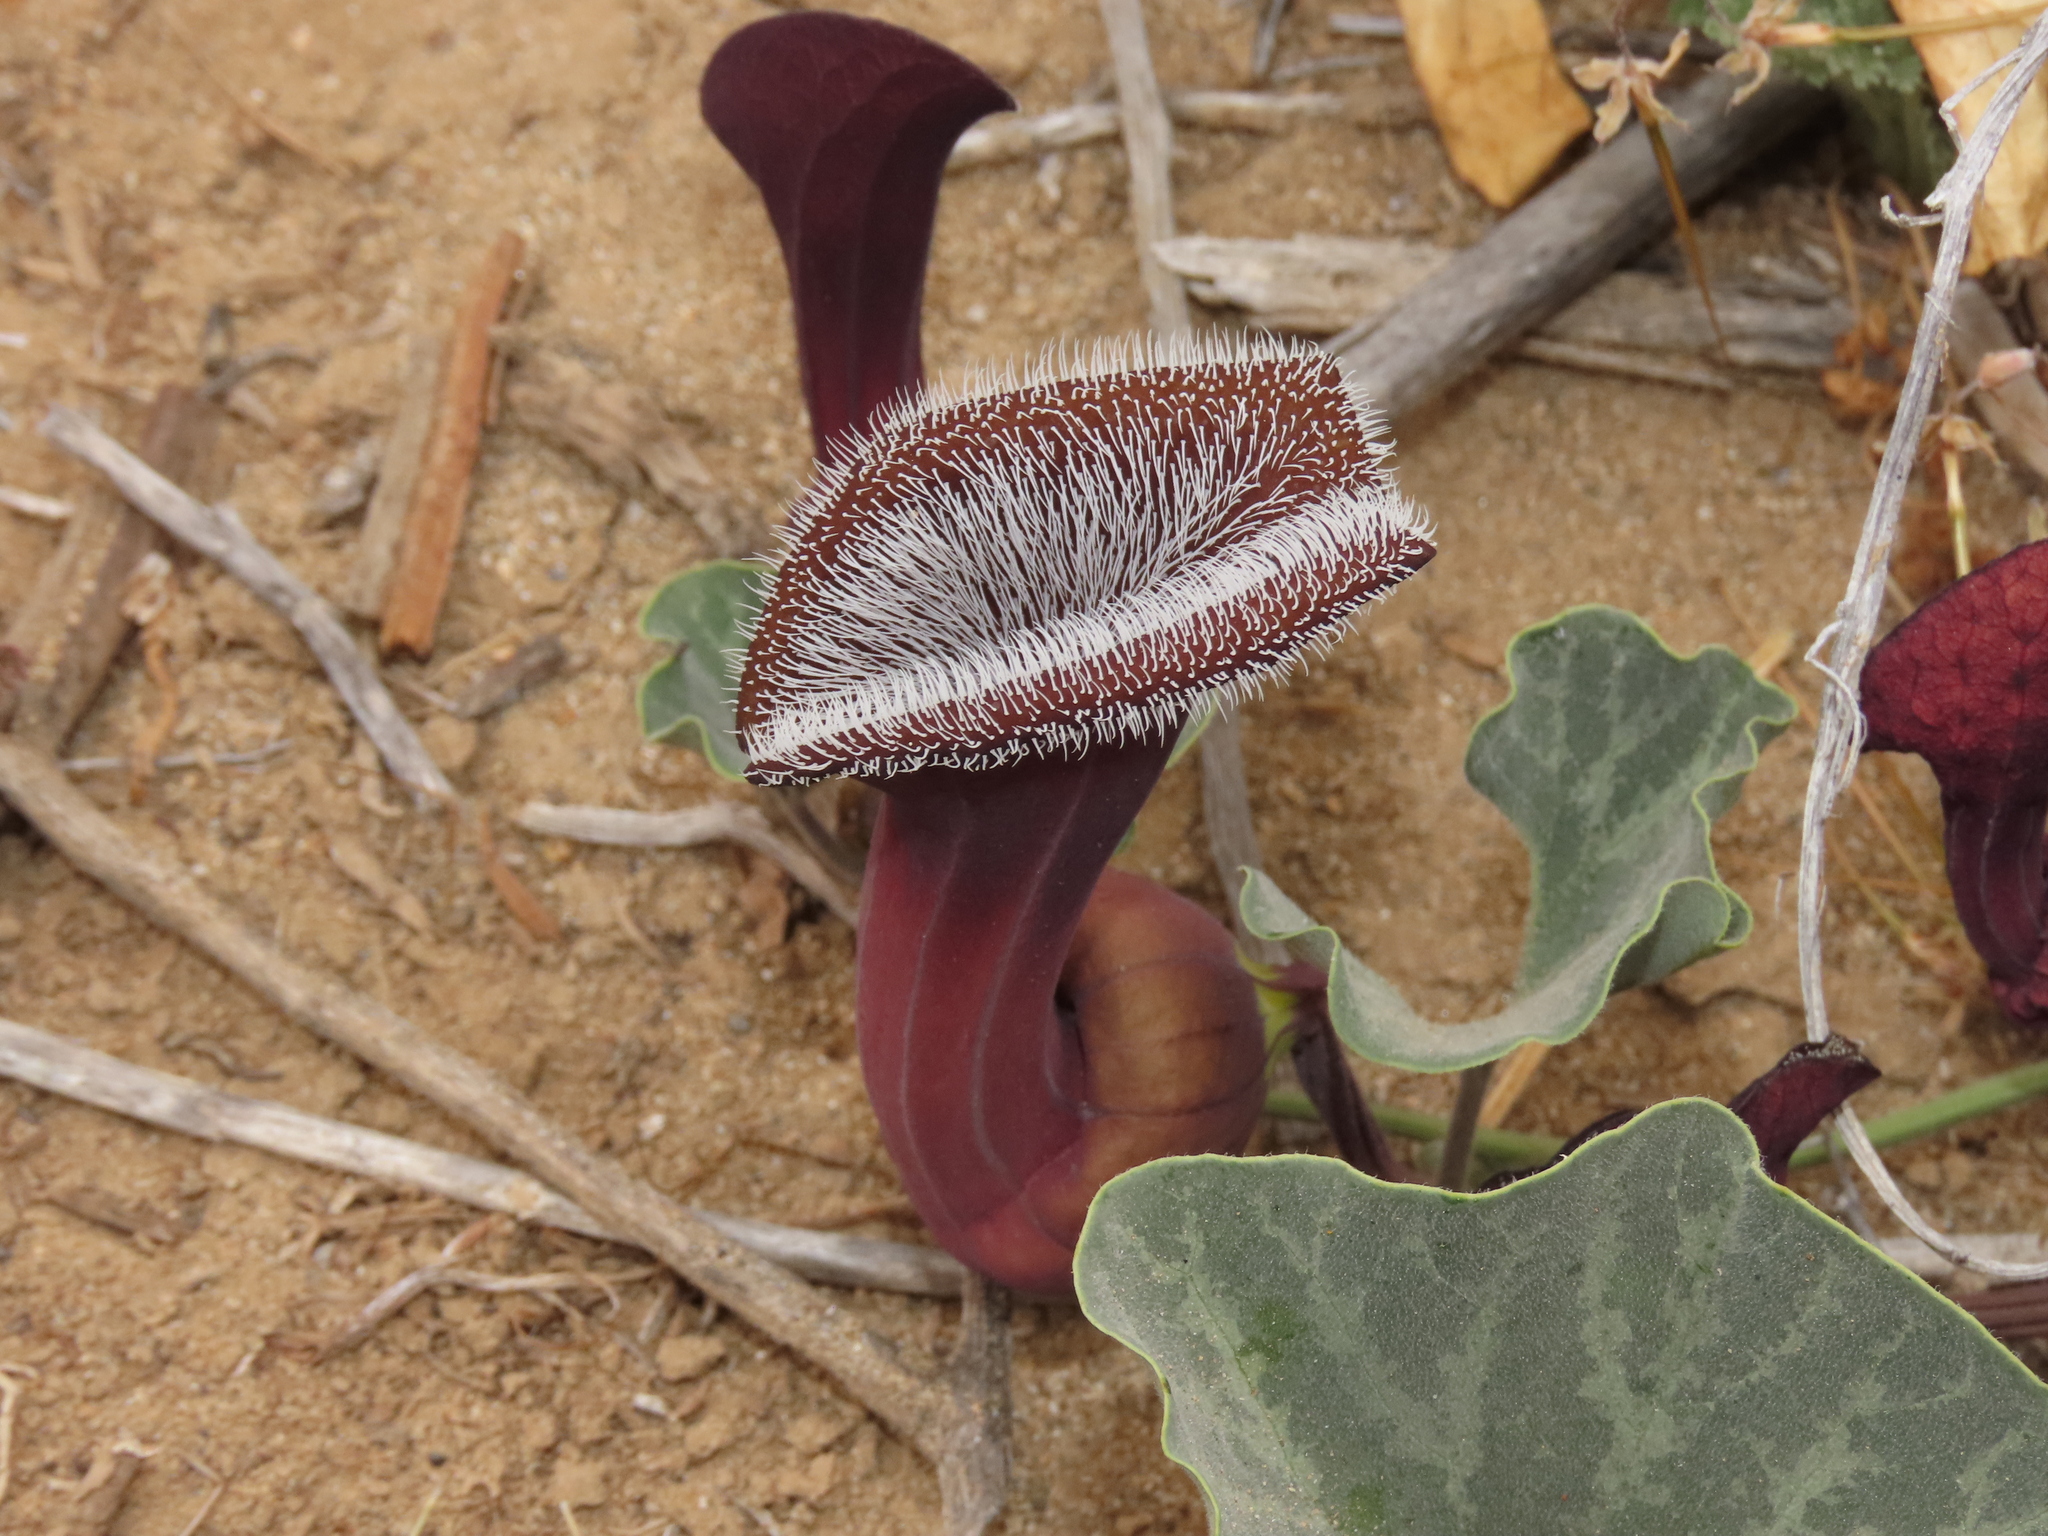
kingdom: Plantae
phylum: Tracheophyta
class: Magnoliopsida
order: Piperales
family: Aristolochiaceae
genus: Aristolochia
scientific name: Aristolochia chilensis
